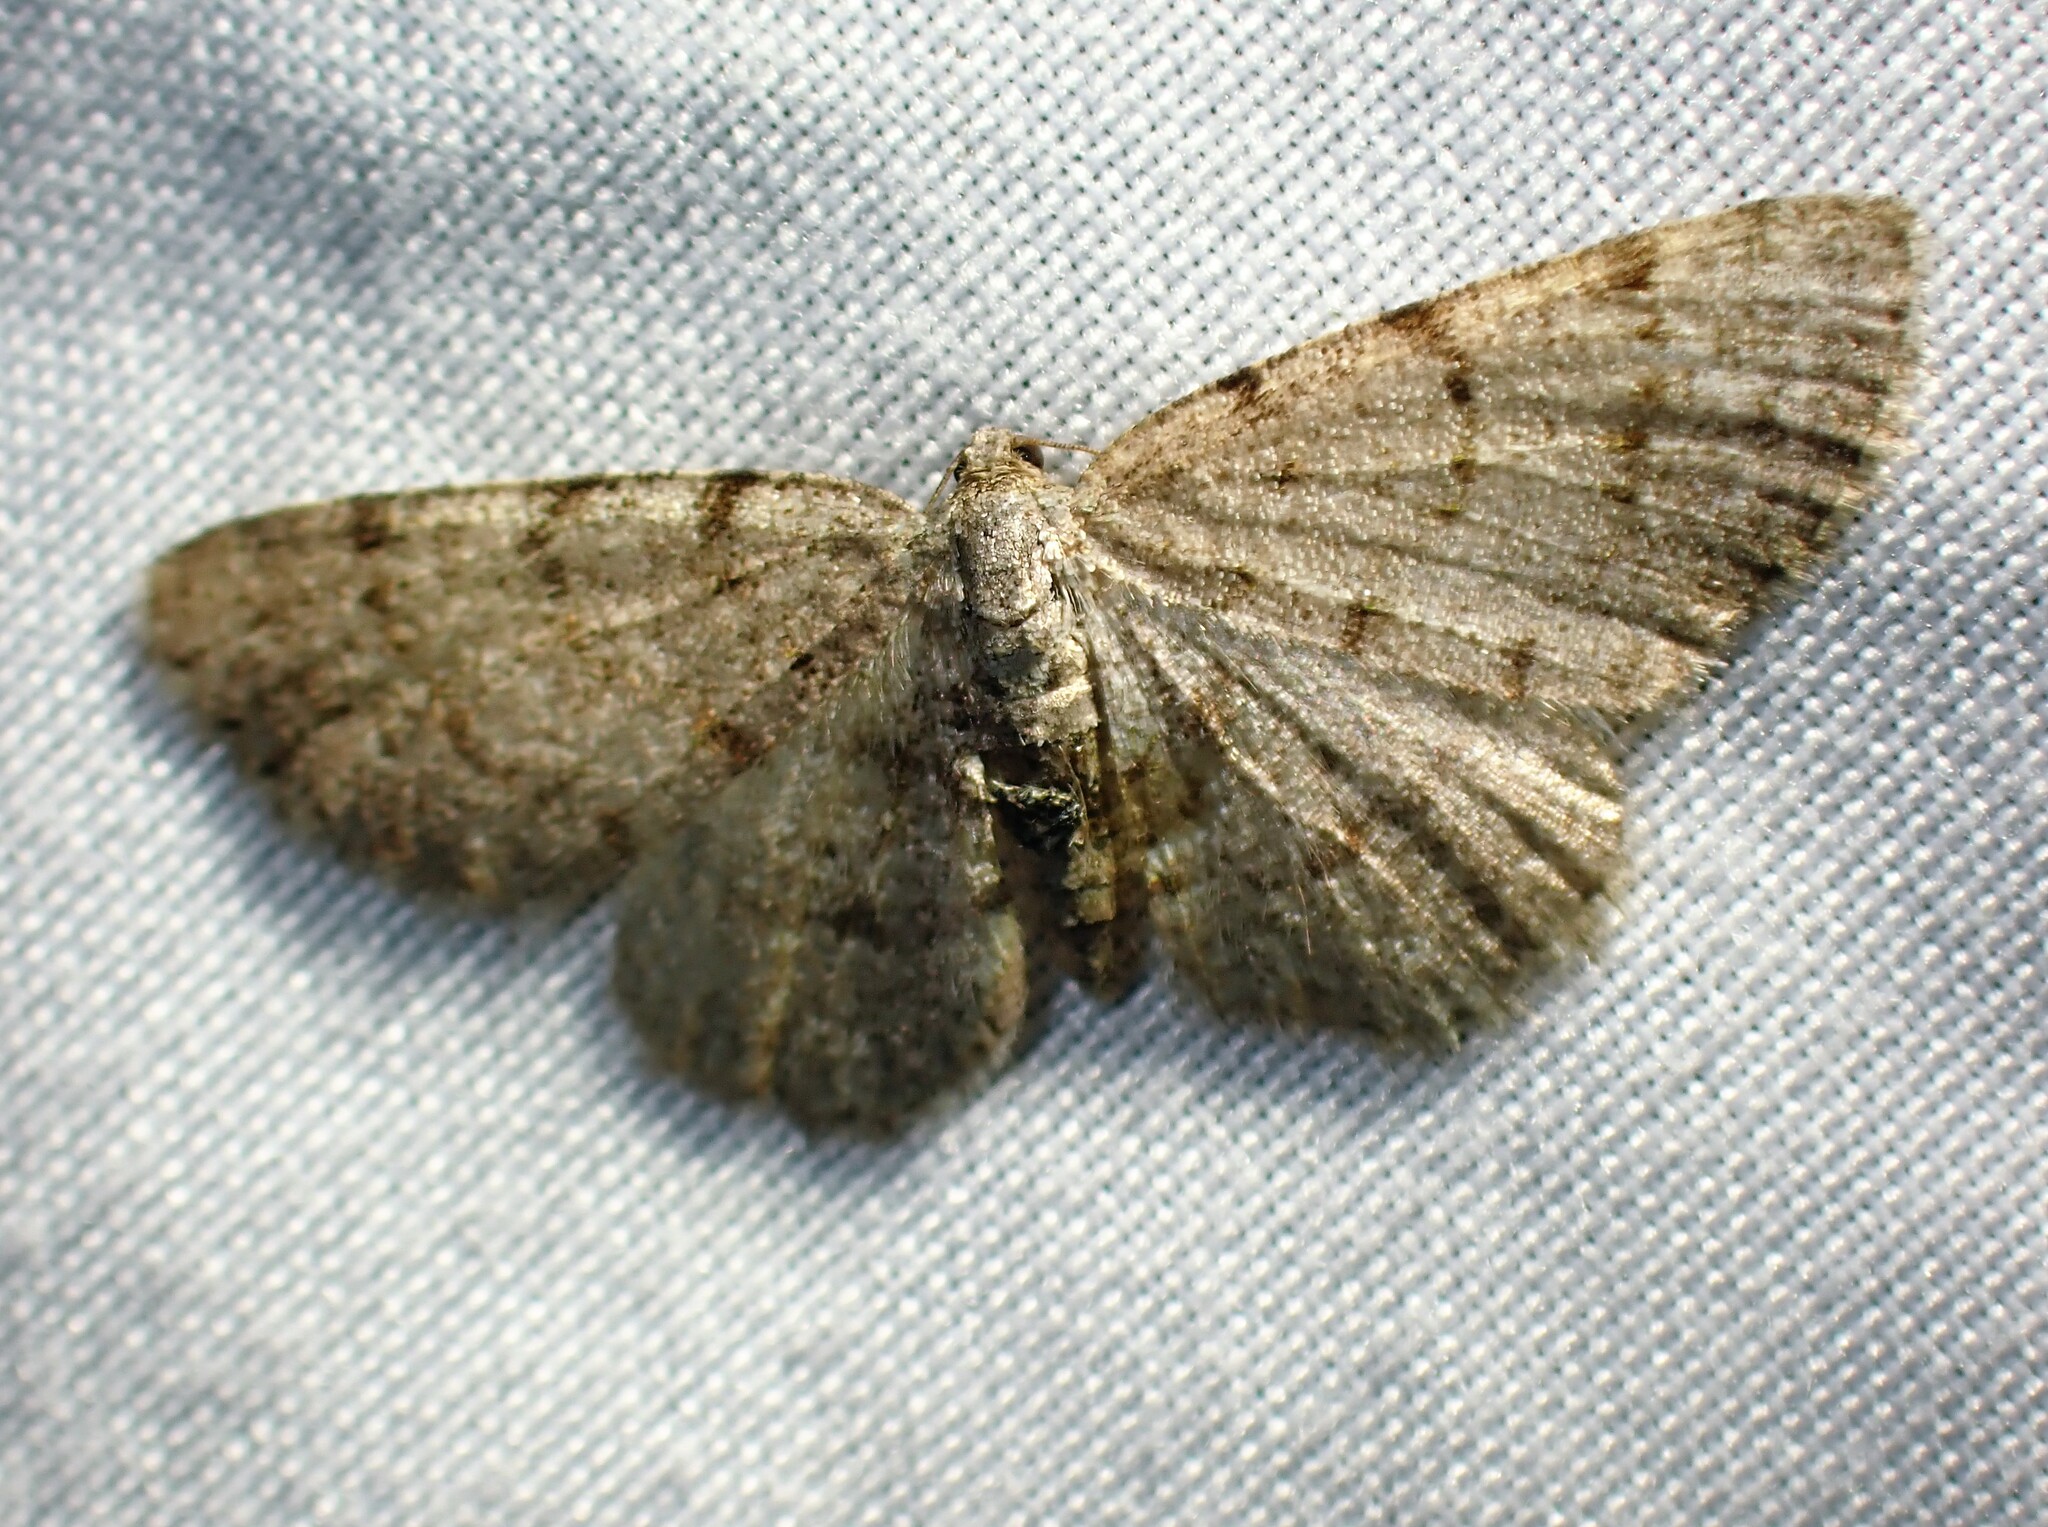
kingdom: Animalia
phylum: Arthropoda
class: Insecta
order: Lepidoptera
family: Geometridae
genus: Aethalura
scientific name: Aethalura intertexta
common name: Four-barred gray
